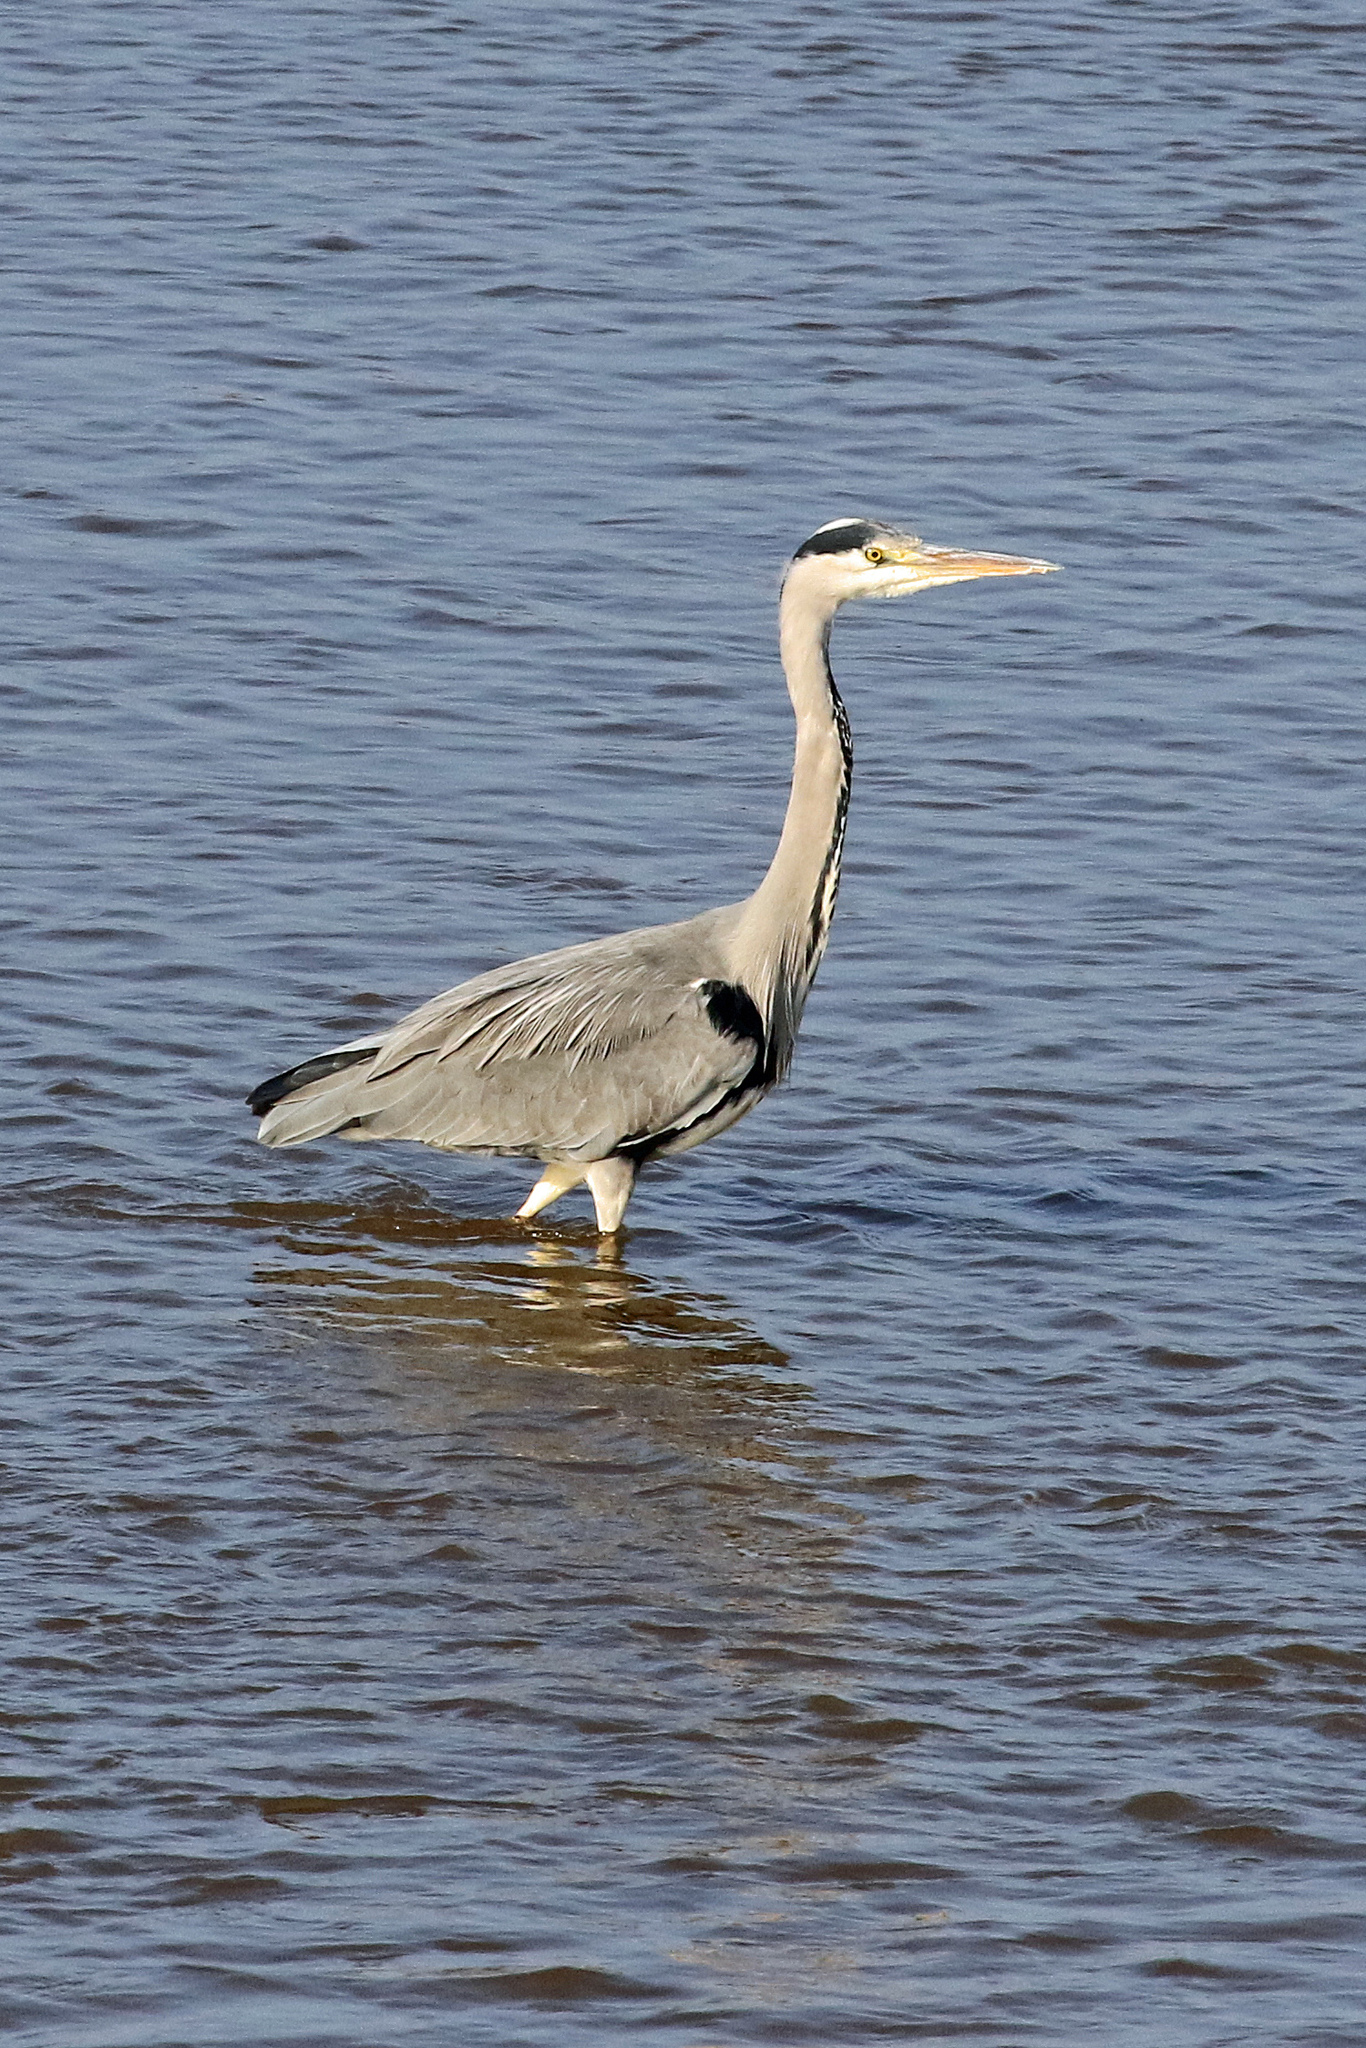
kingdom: Animalia
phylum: Chordata
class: Aves
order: Pelecaniformes
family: Ardeidae
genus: Ardea
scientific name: Ardea cinerea
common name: Grey heron
